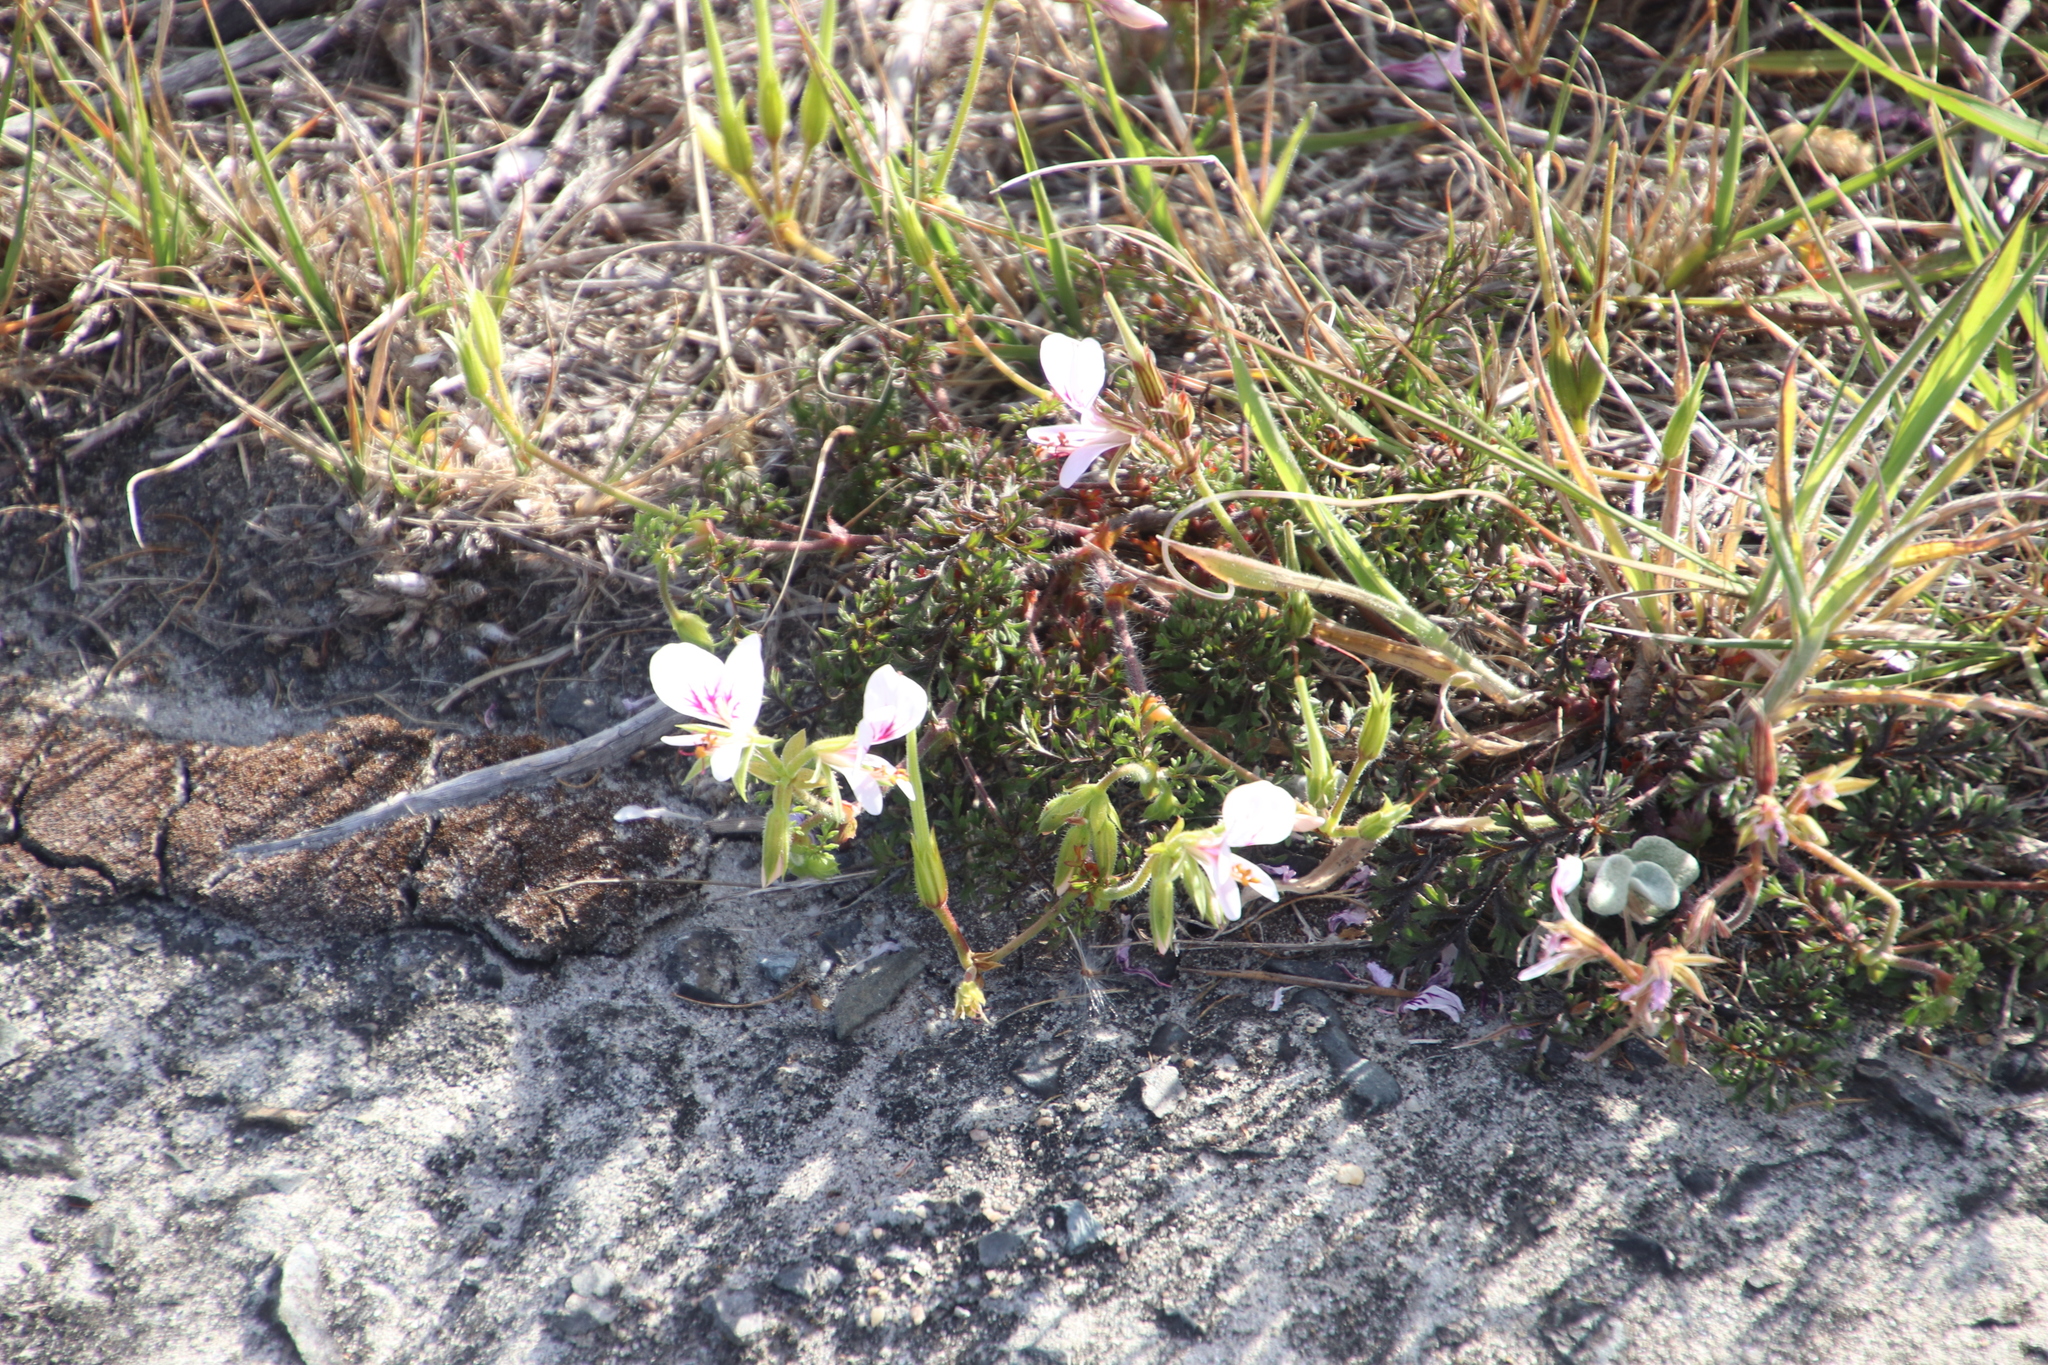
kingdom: Plantae
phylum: Tracheophyta
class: Magnoliopsida
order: Geraniales
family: Geraniaceae
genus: Pelargonium
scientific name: Pelargonium myrrhifolium
